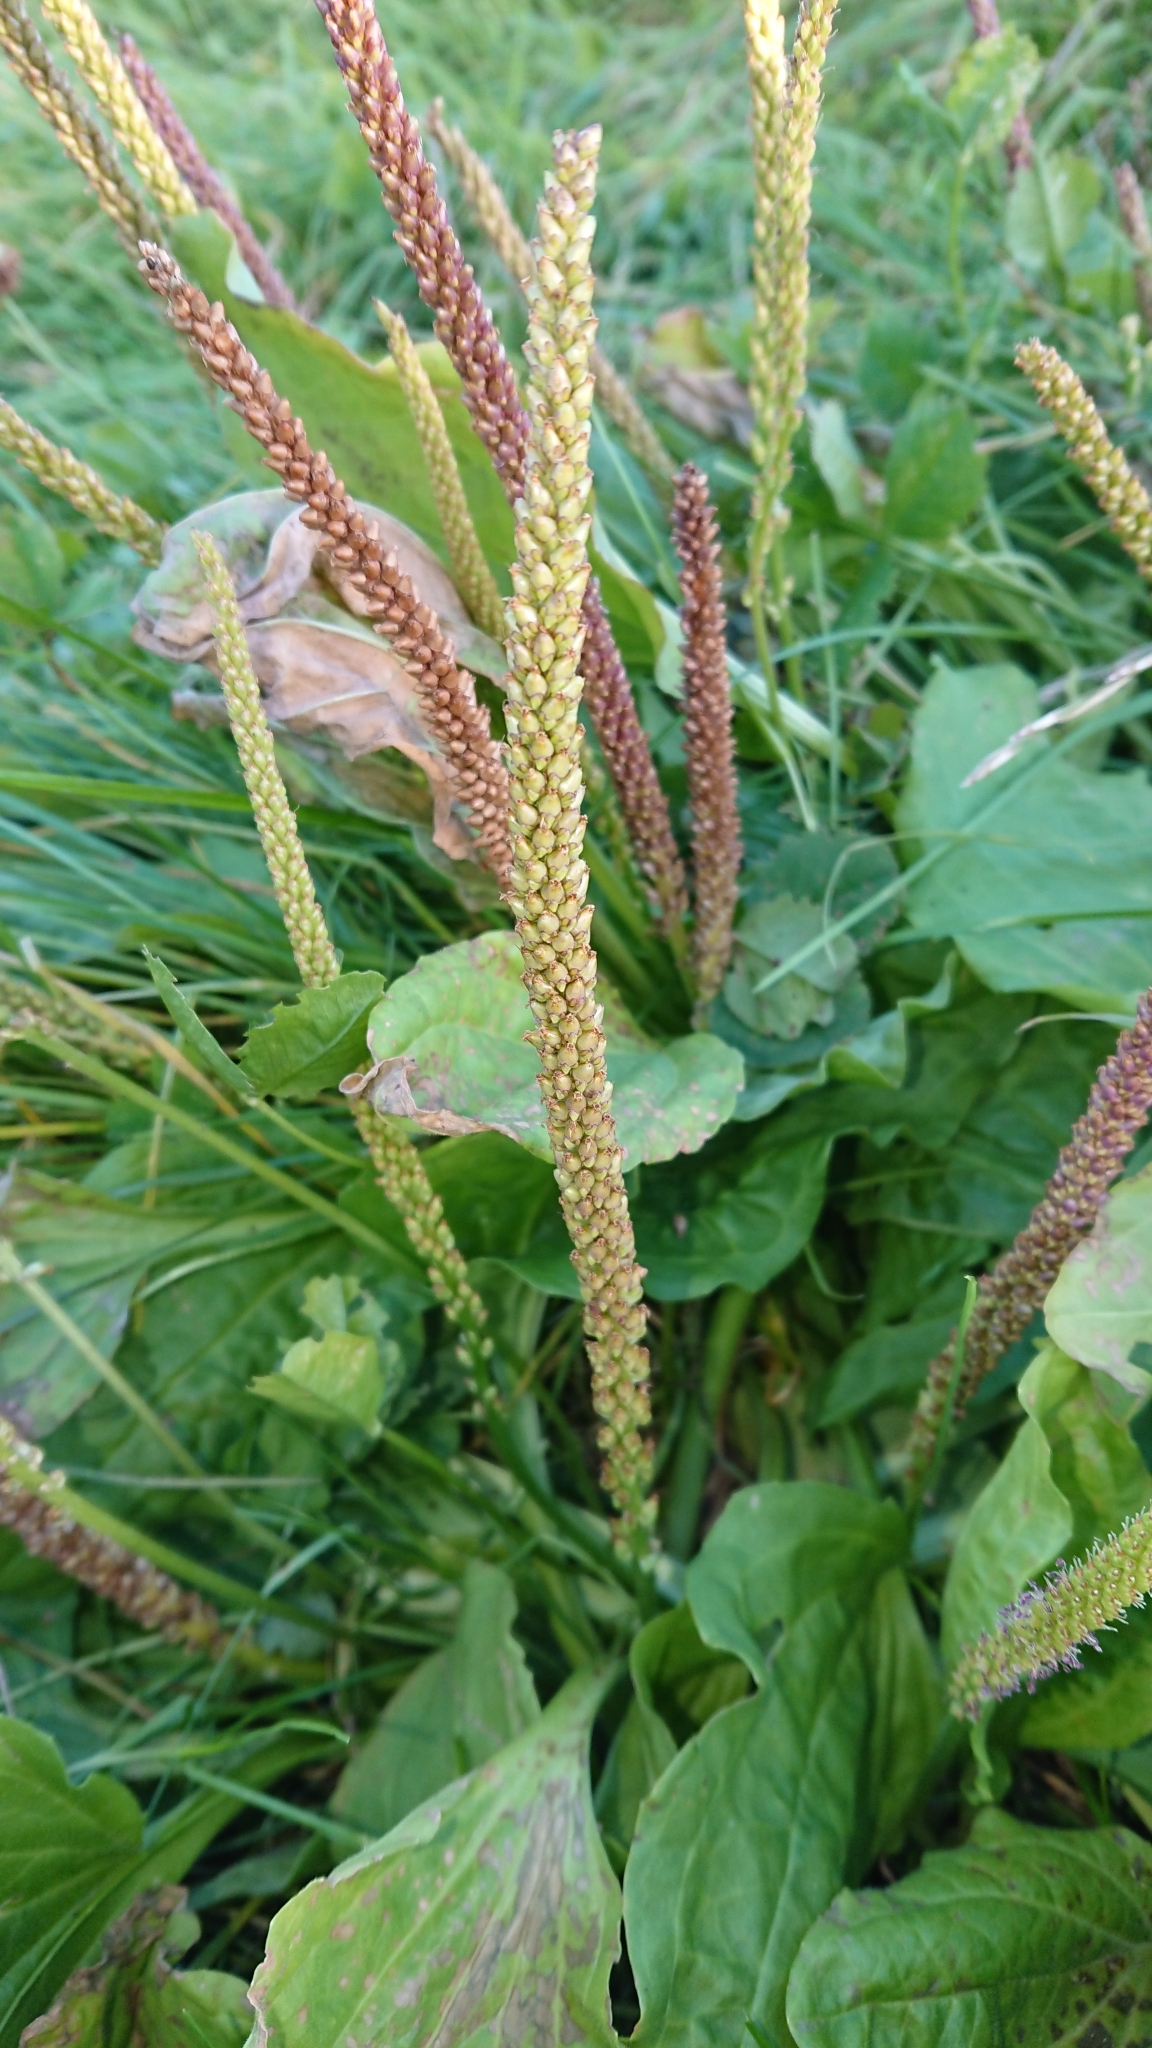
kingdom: Plantae
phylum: Tracheophyta
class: Magnoliopsida
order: Lamiales
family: Plantaginaceae
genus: Plantago
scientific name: Plantago major
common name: Common plantain
